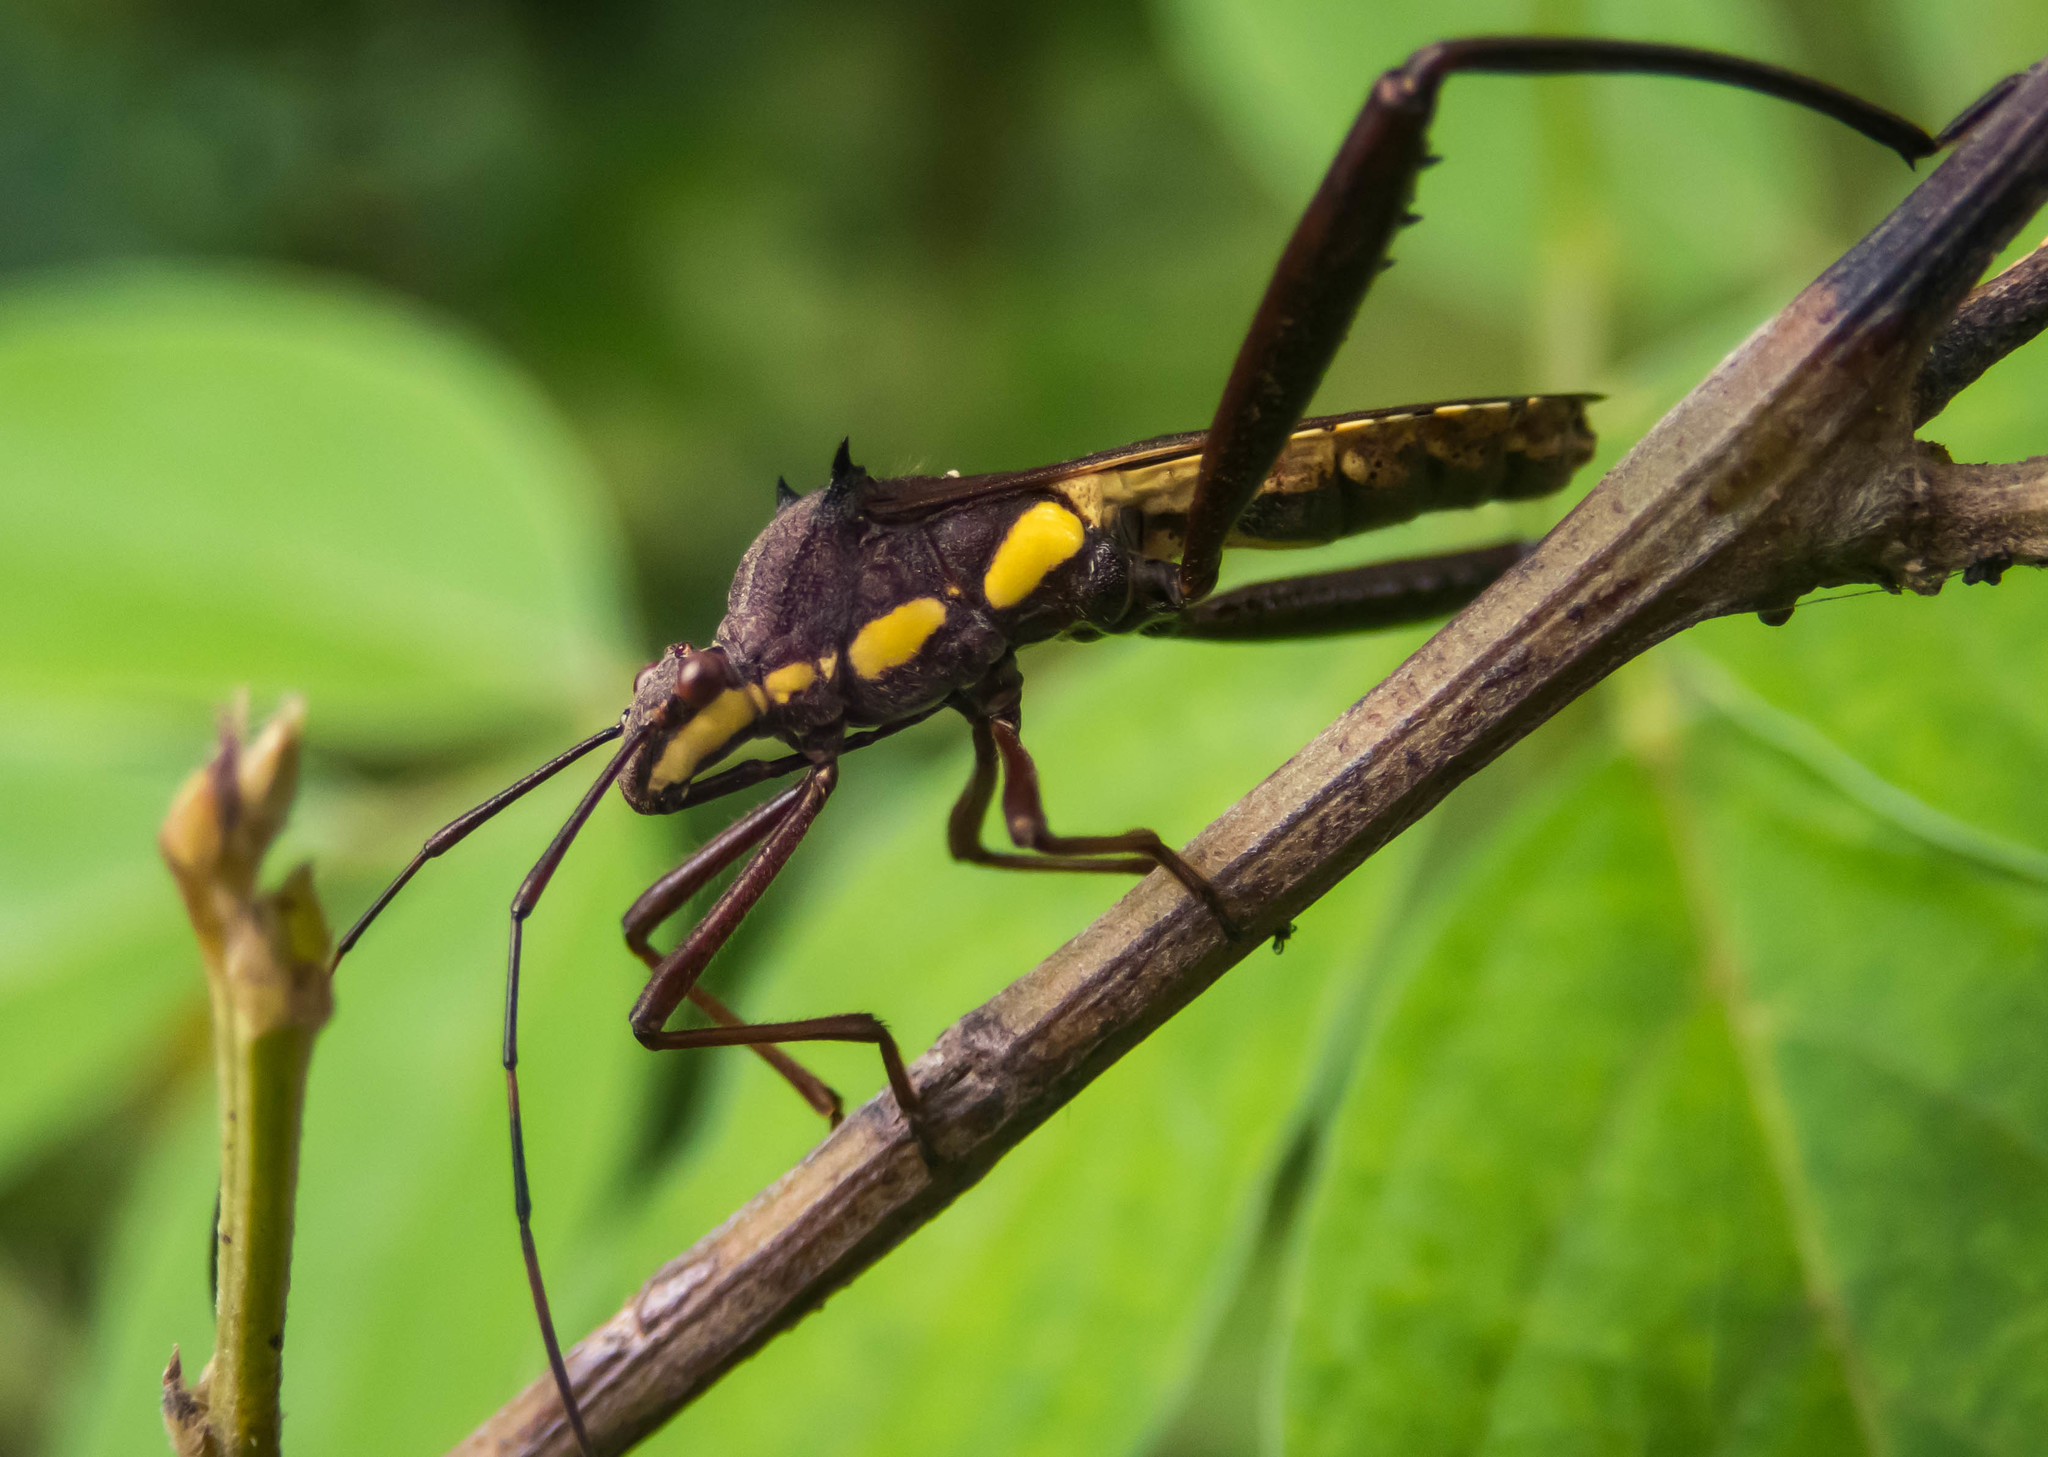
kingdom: Animalia
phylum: Arthropoda
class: Insecta
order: Hemiptera
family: Alydidae
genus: Riptortus
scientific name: Riptortus serripes
